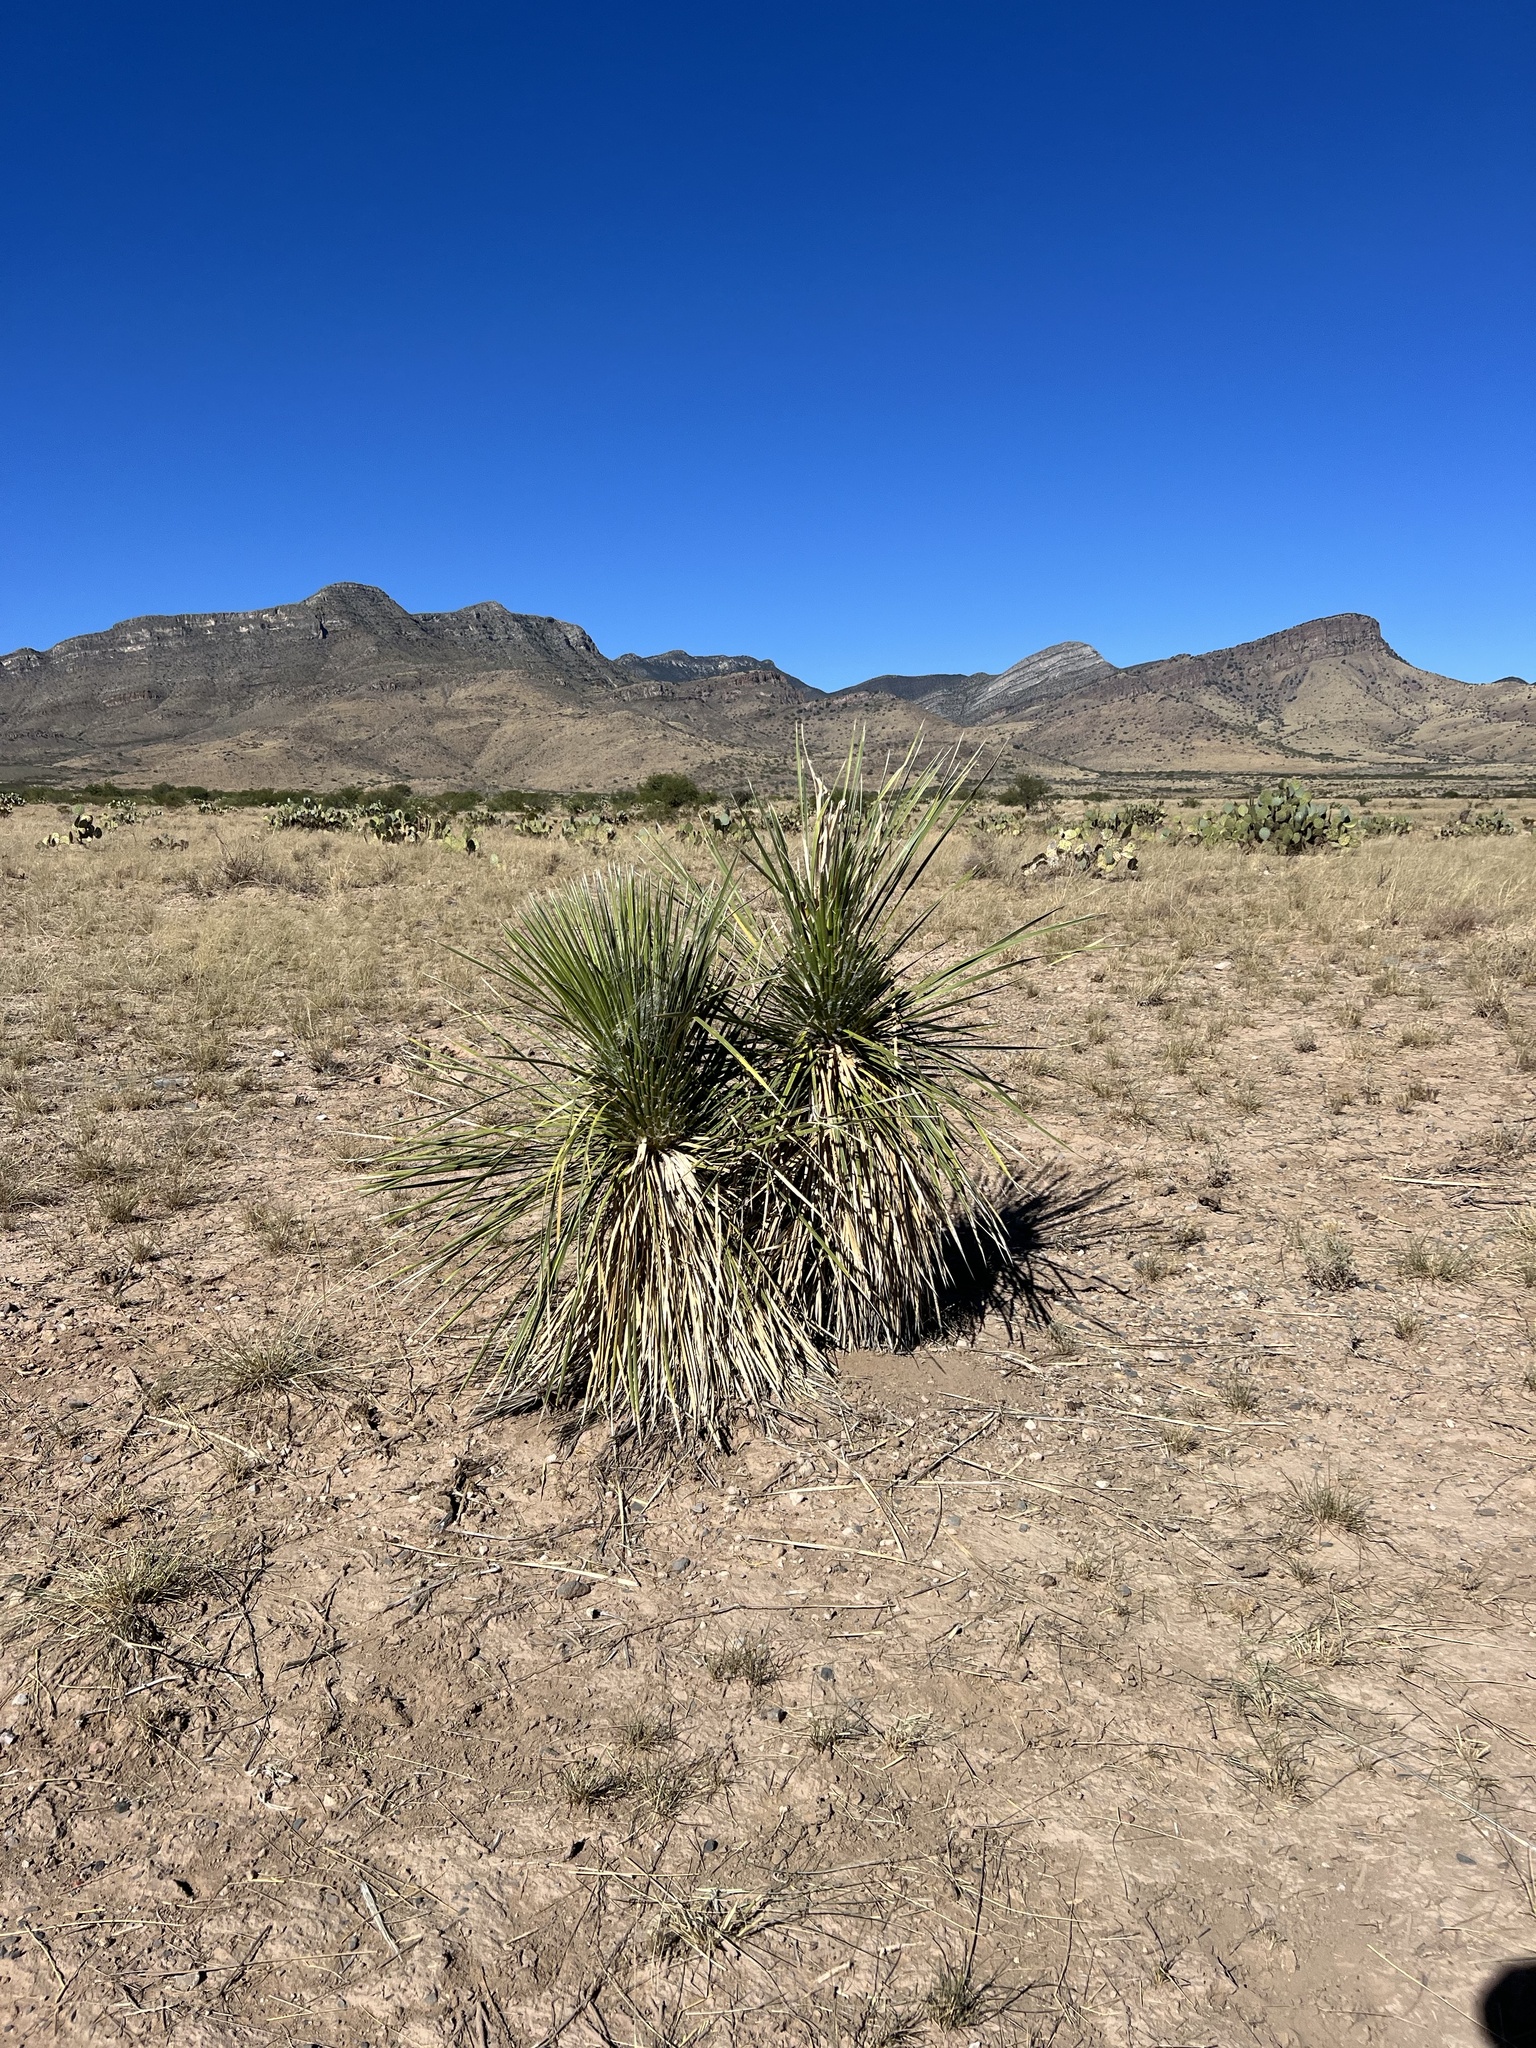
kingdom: Plantae
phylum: Tracheophyta
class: Liliopsida
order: Asparagales
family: Asparagaceae
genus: Yucca
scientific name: Yucca elata
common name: Palmella
